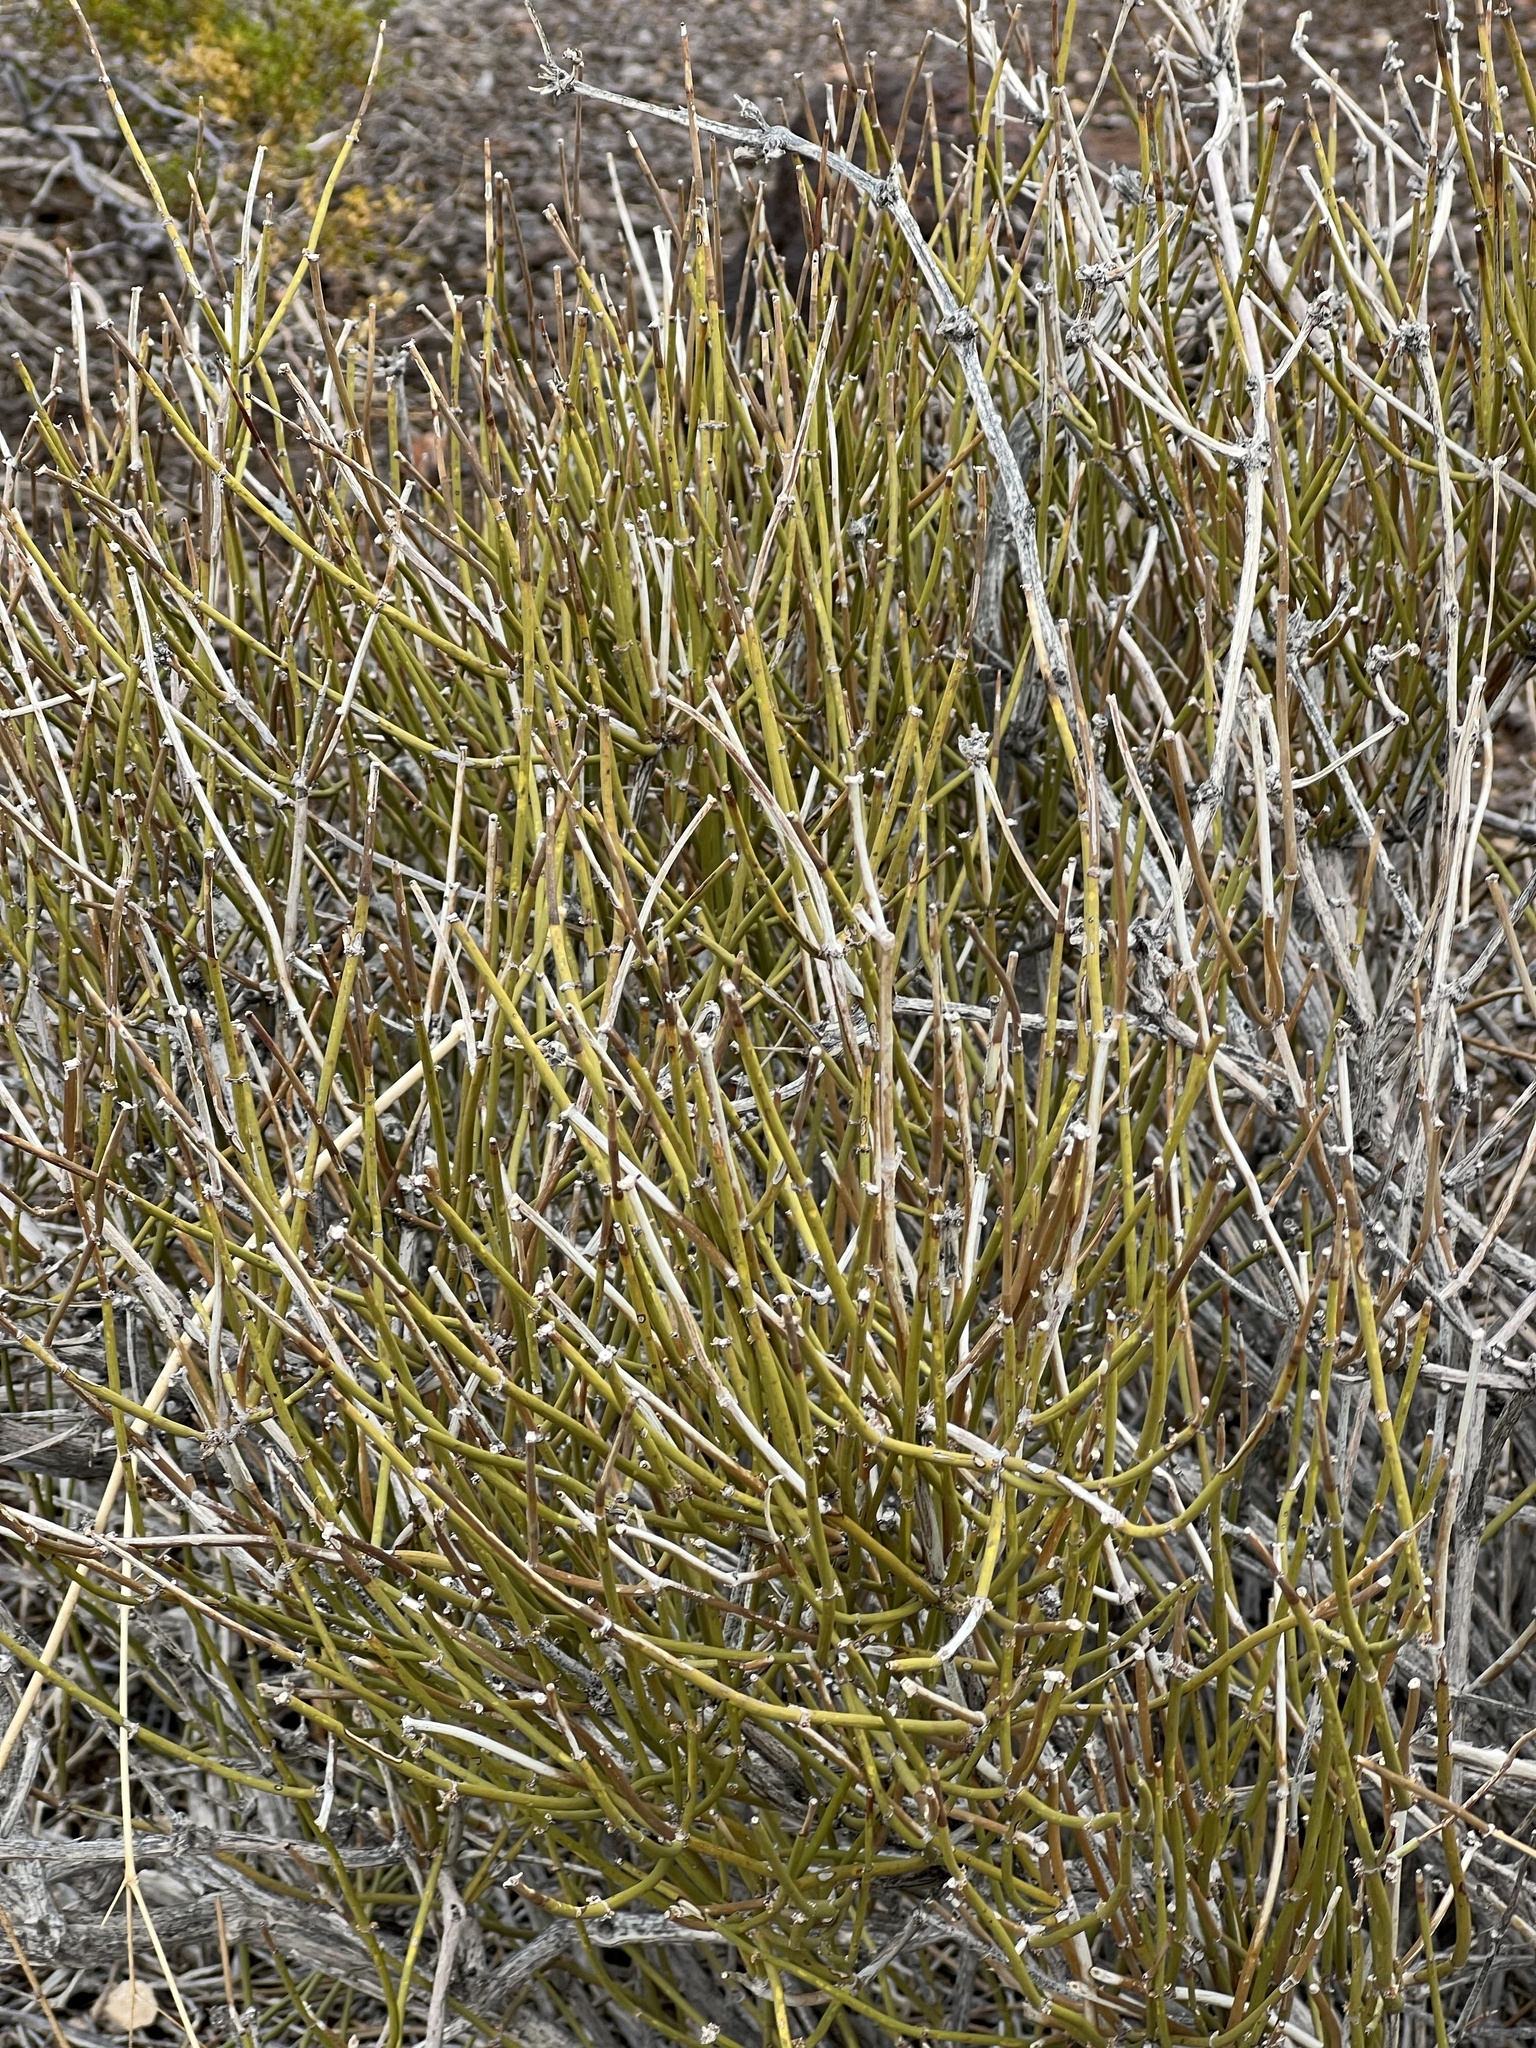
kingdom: Plantae
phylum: Tracheophyta
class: Gnetopsida
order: Ephedrales
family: Ephedraceae
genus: Ephedra
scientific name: Ephedra viridis
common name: Green ephedra
